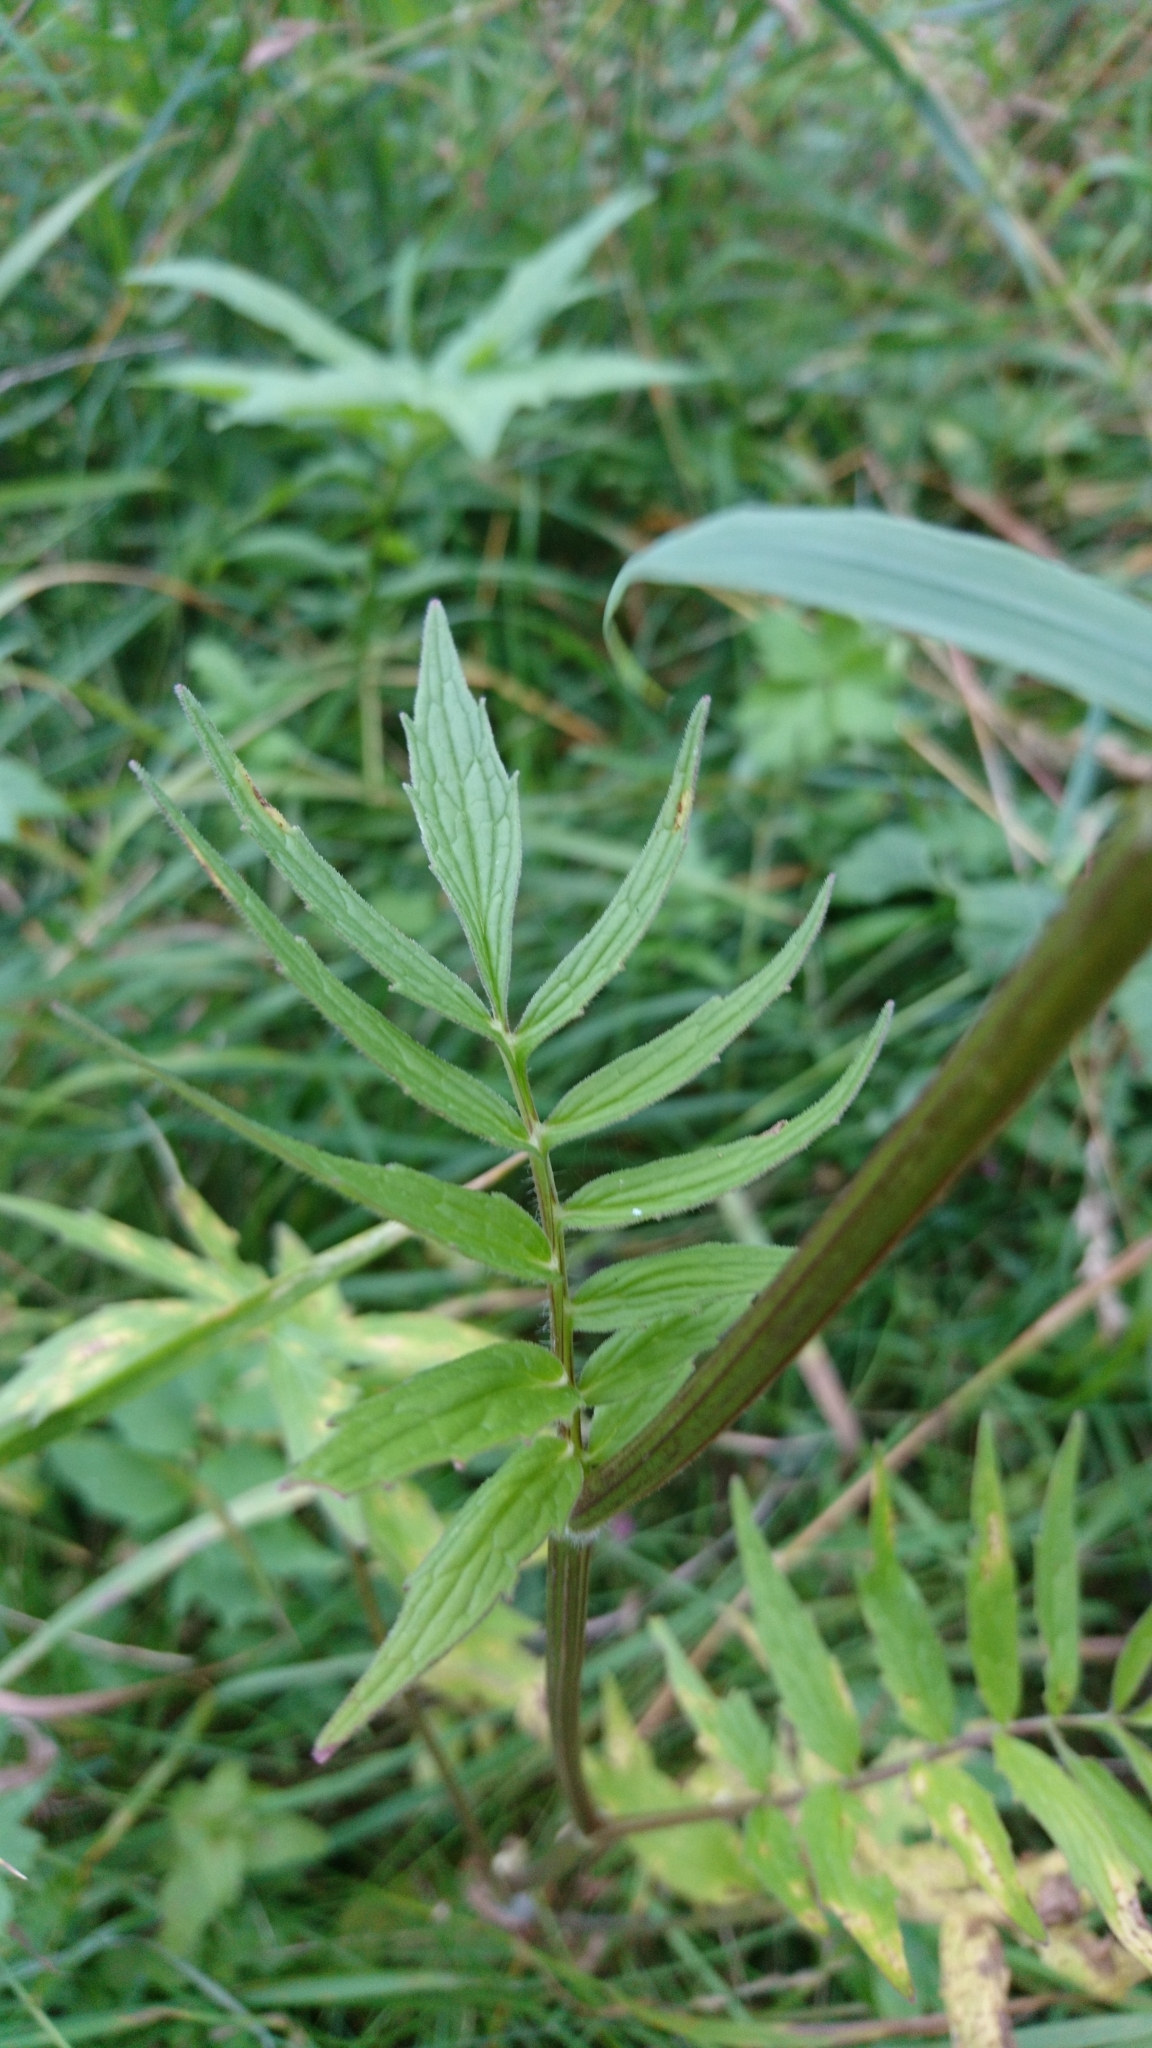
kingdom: Plantae
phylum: Tracheophyta
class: Magnoliopsida
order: Dipsacales
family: Caprifoliaceae
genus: Valeriana
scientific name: Valeriana officinalis
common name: Common valerian
